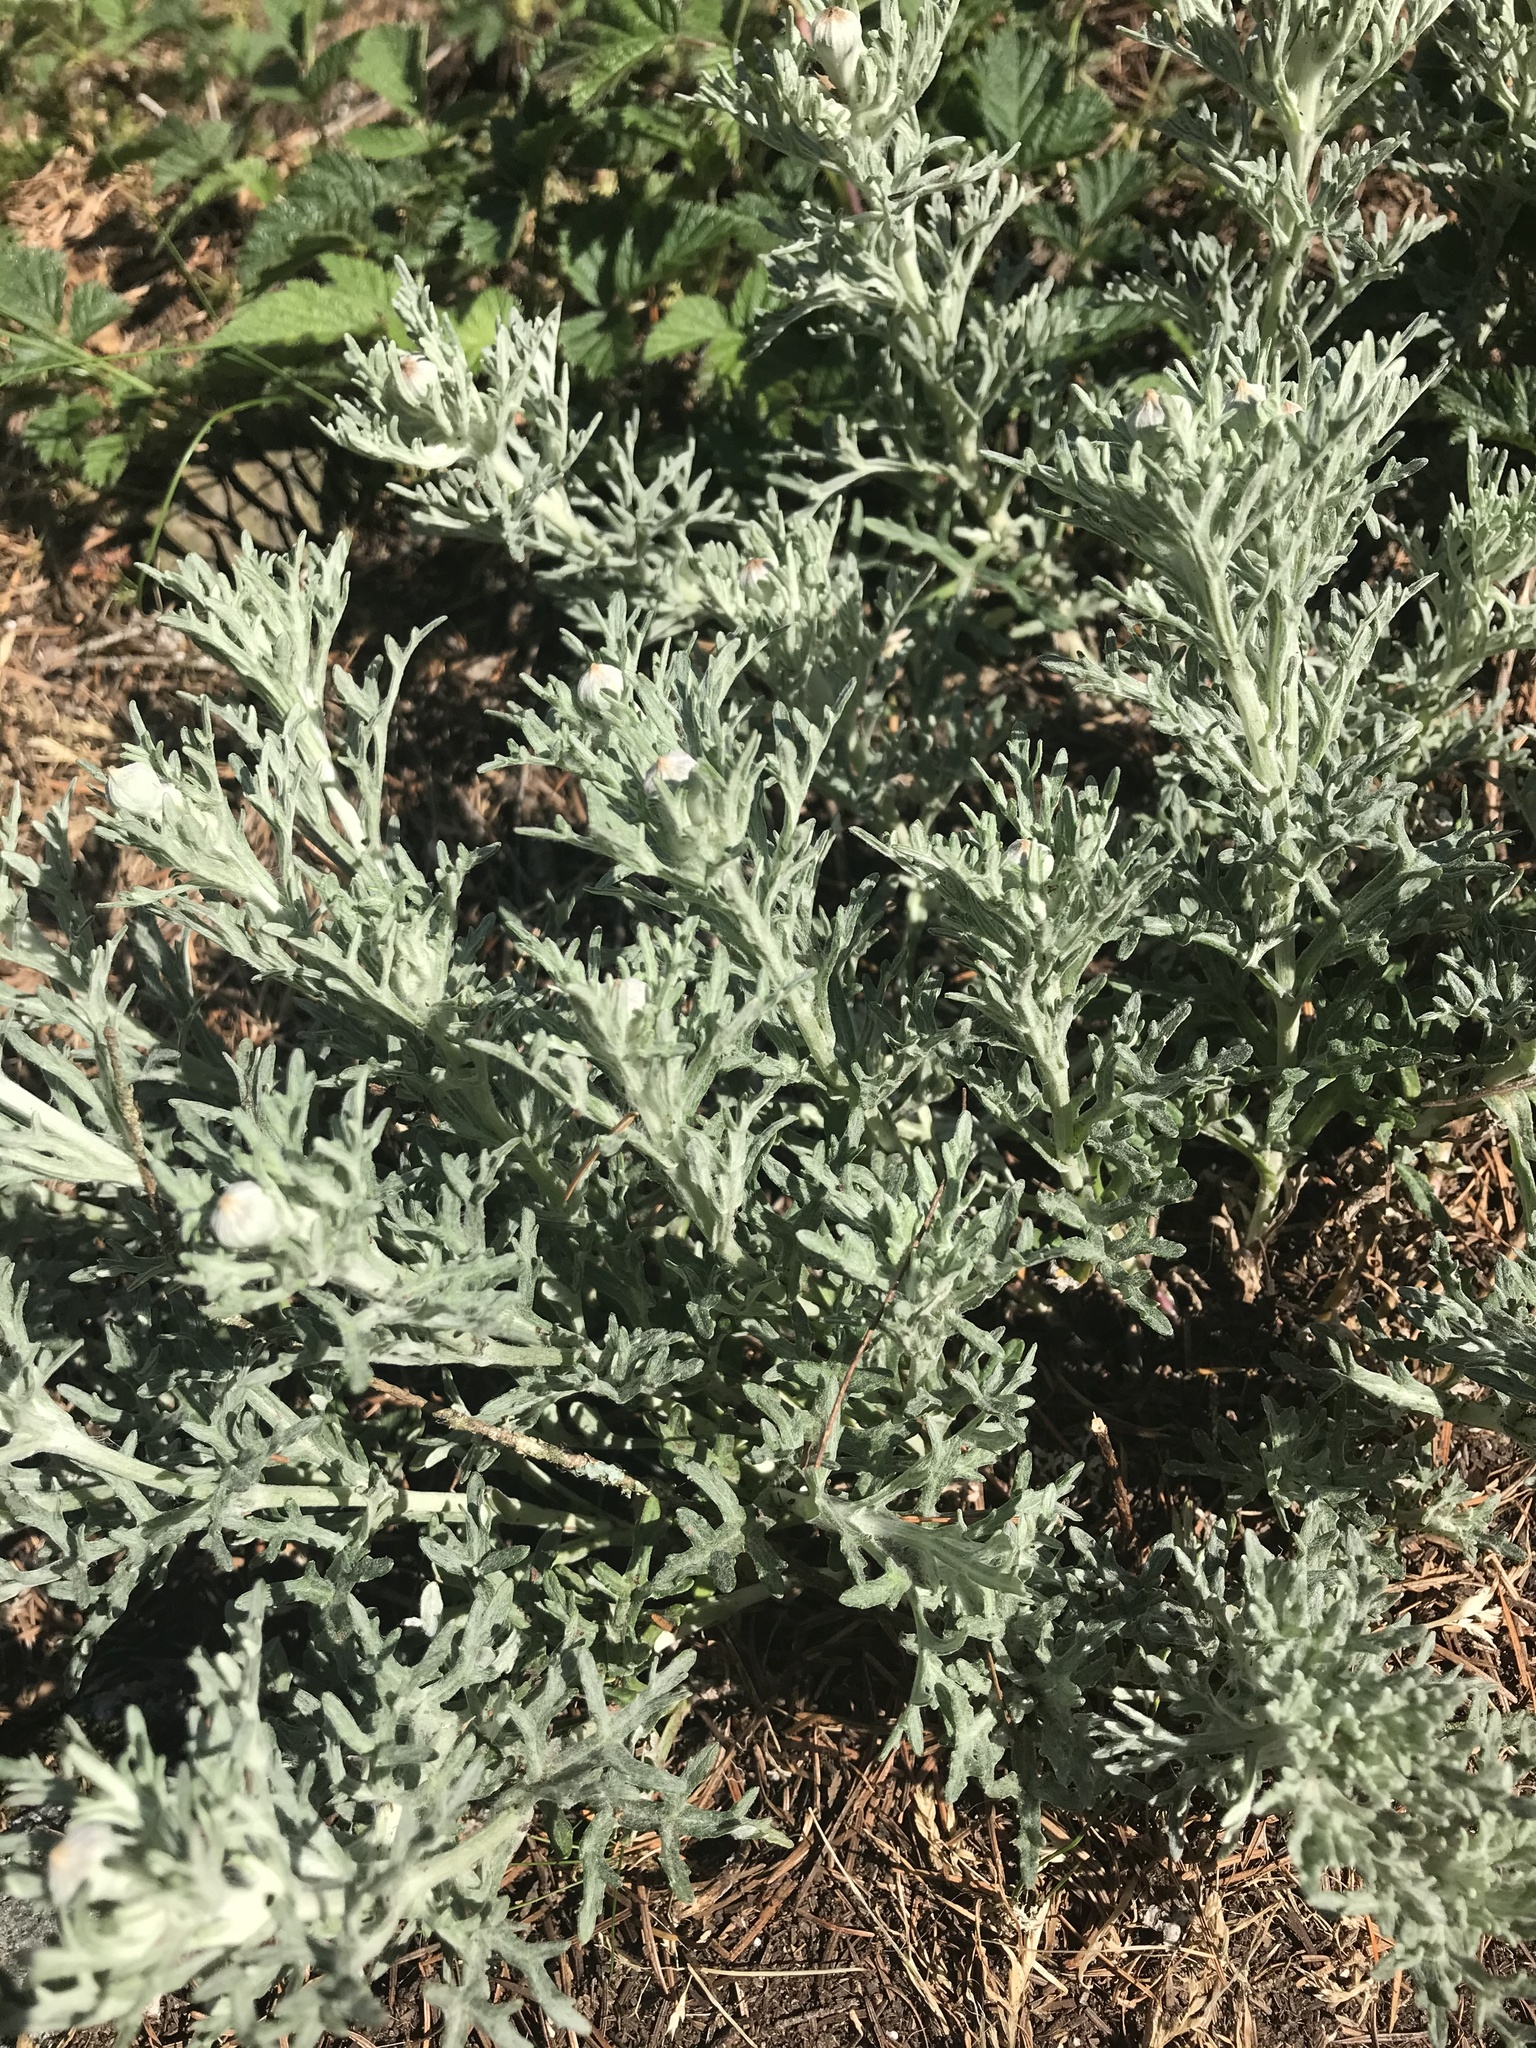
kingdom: Plantae
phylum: Tracheophyta
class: Magnoliopsida
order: Asterales
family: Asteraceae
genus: Eriophyllum
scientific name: Eriophyllum lanatum
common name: Common woolly-sunflower
